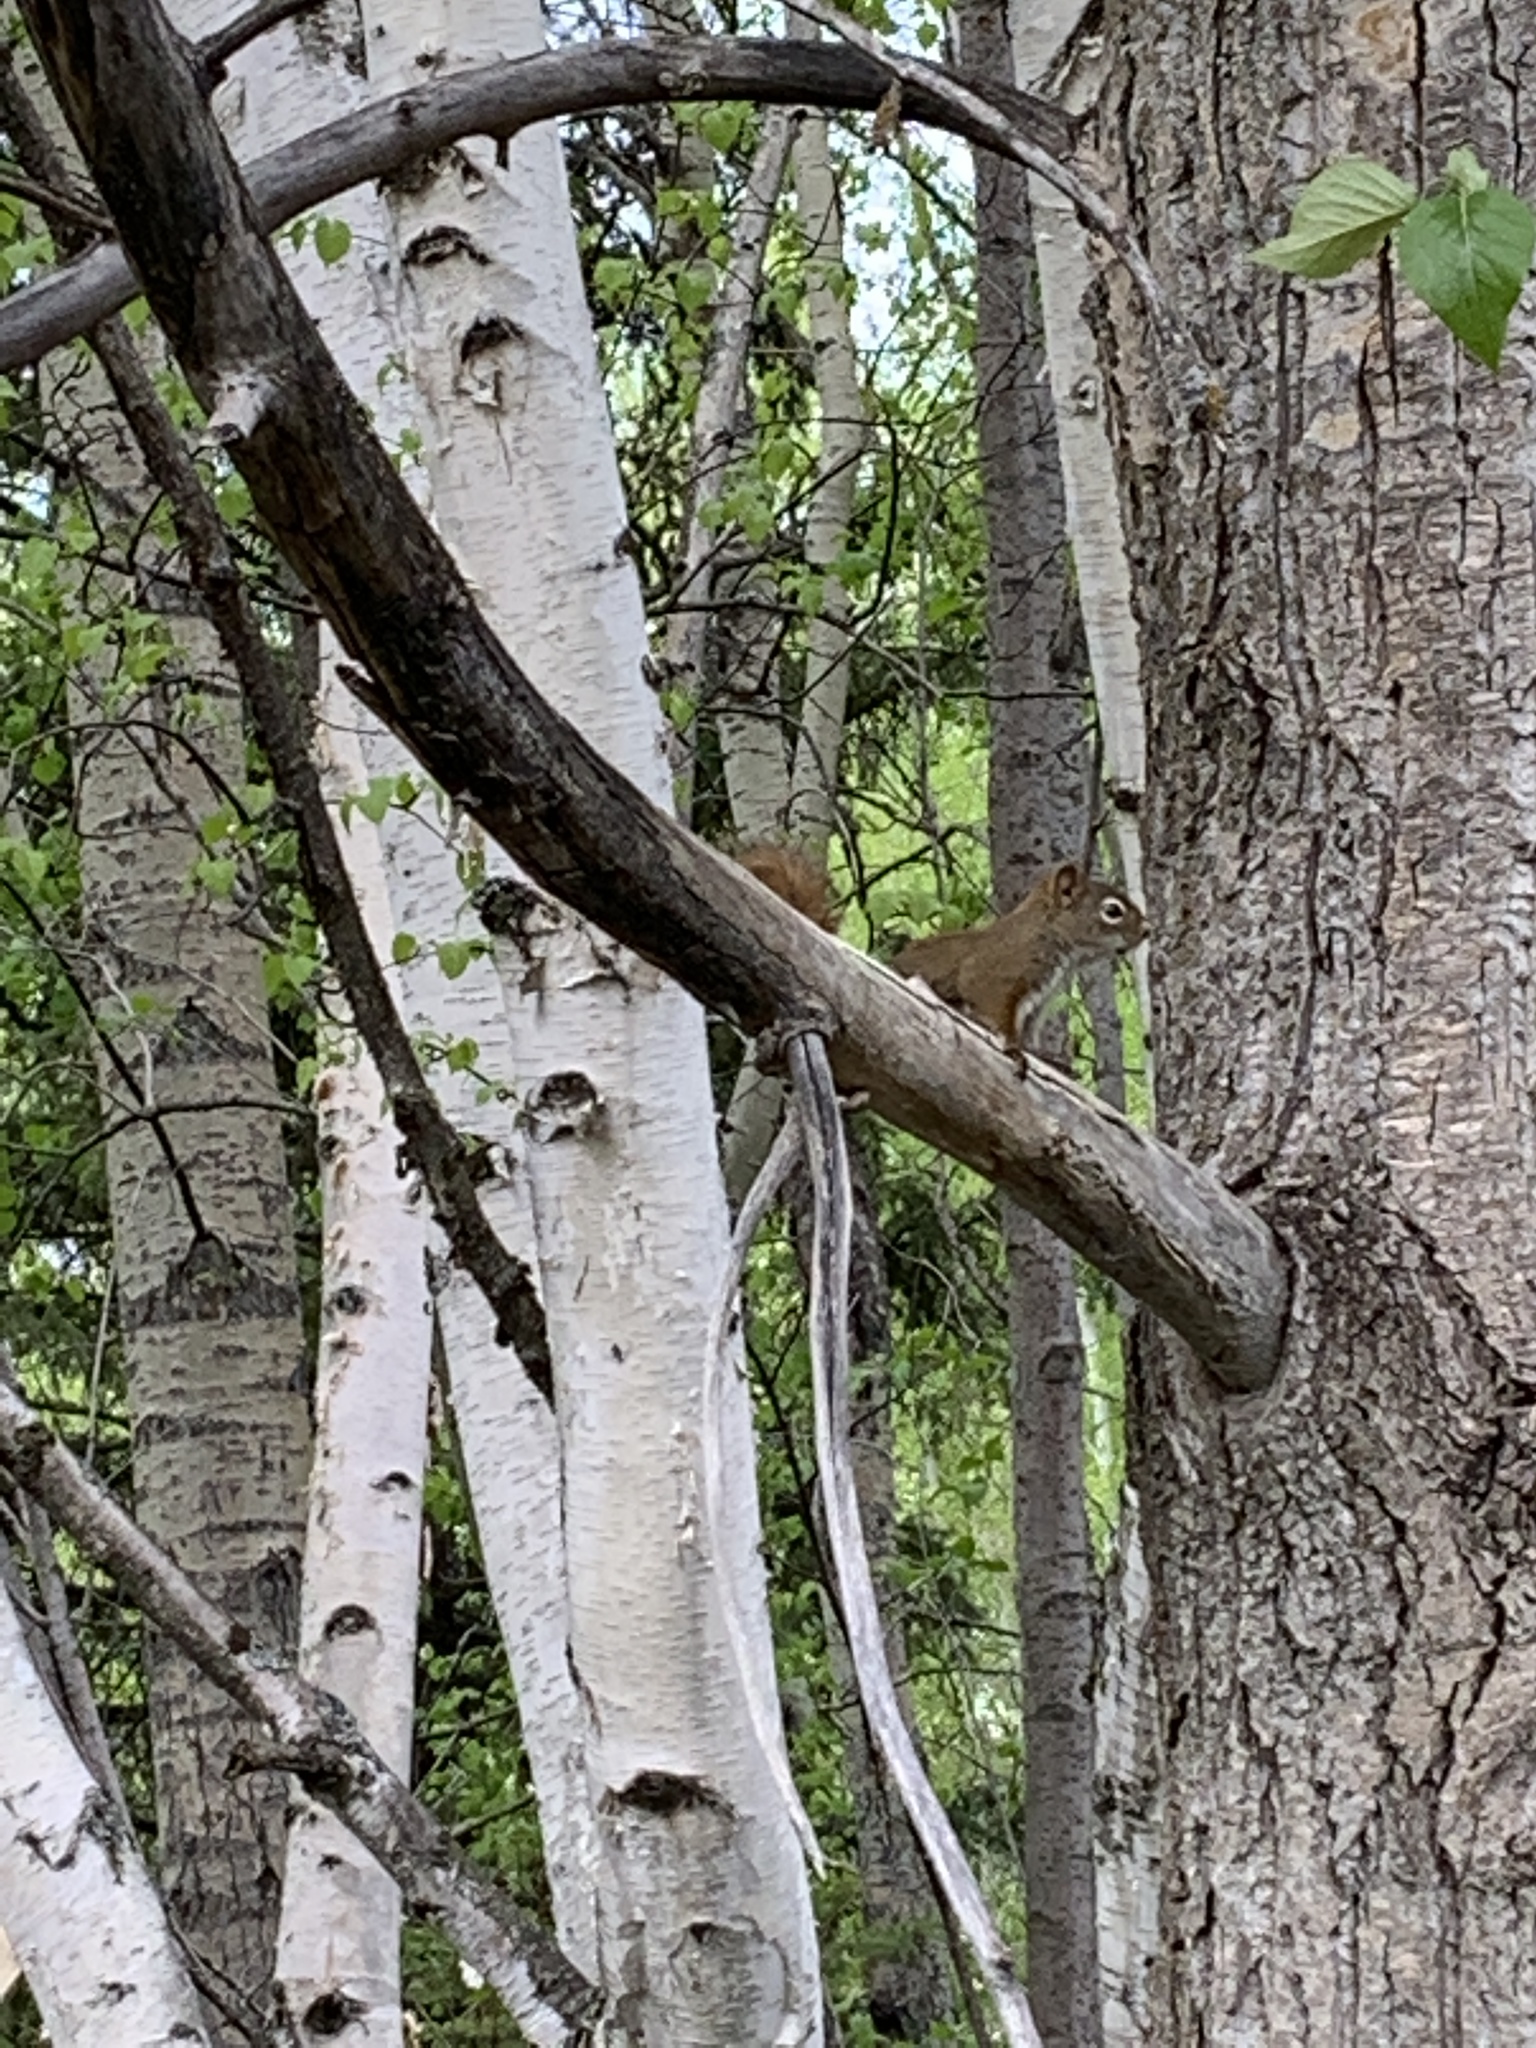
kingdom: Animalia
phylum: Chordata
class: Mammalia
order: Rodentia
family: Sciuridae
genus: Tamiasciurus
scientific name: Tamiasciurus hudsonicus
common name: Red squirrel
